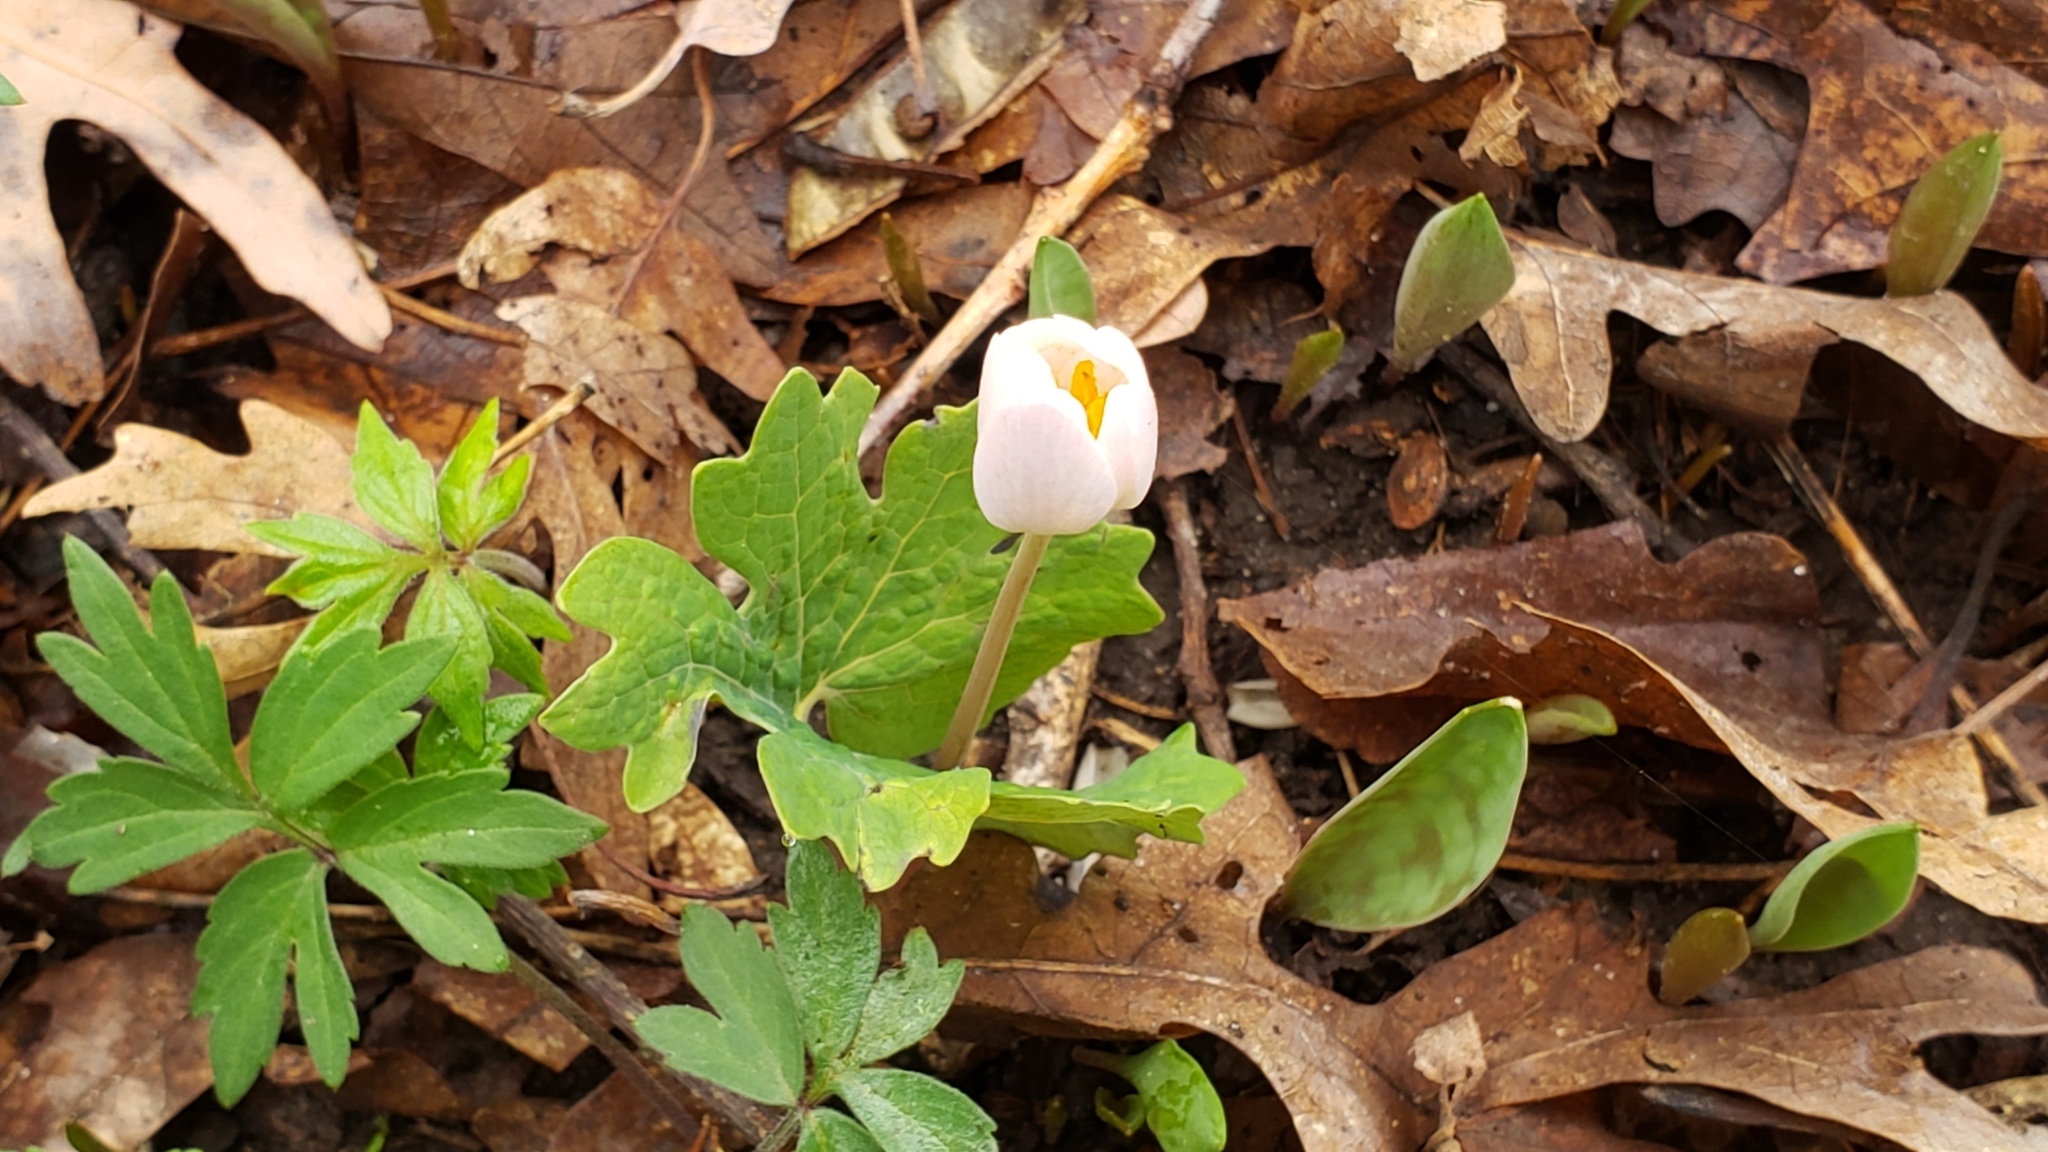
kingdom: Plantae
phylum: Tracheophyta
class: Magnoliopsida
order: Ranunculales
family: Papaveraceae
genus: Sanguinaria
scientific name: Sanguinaria canadensis
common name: Bloodroot
